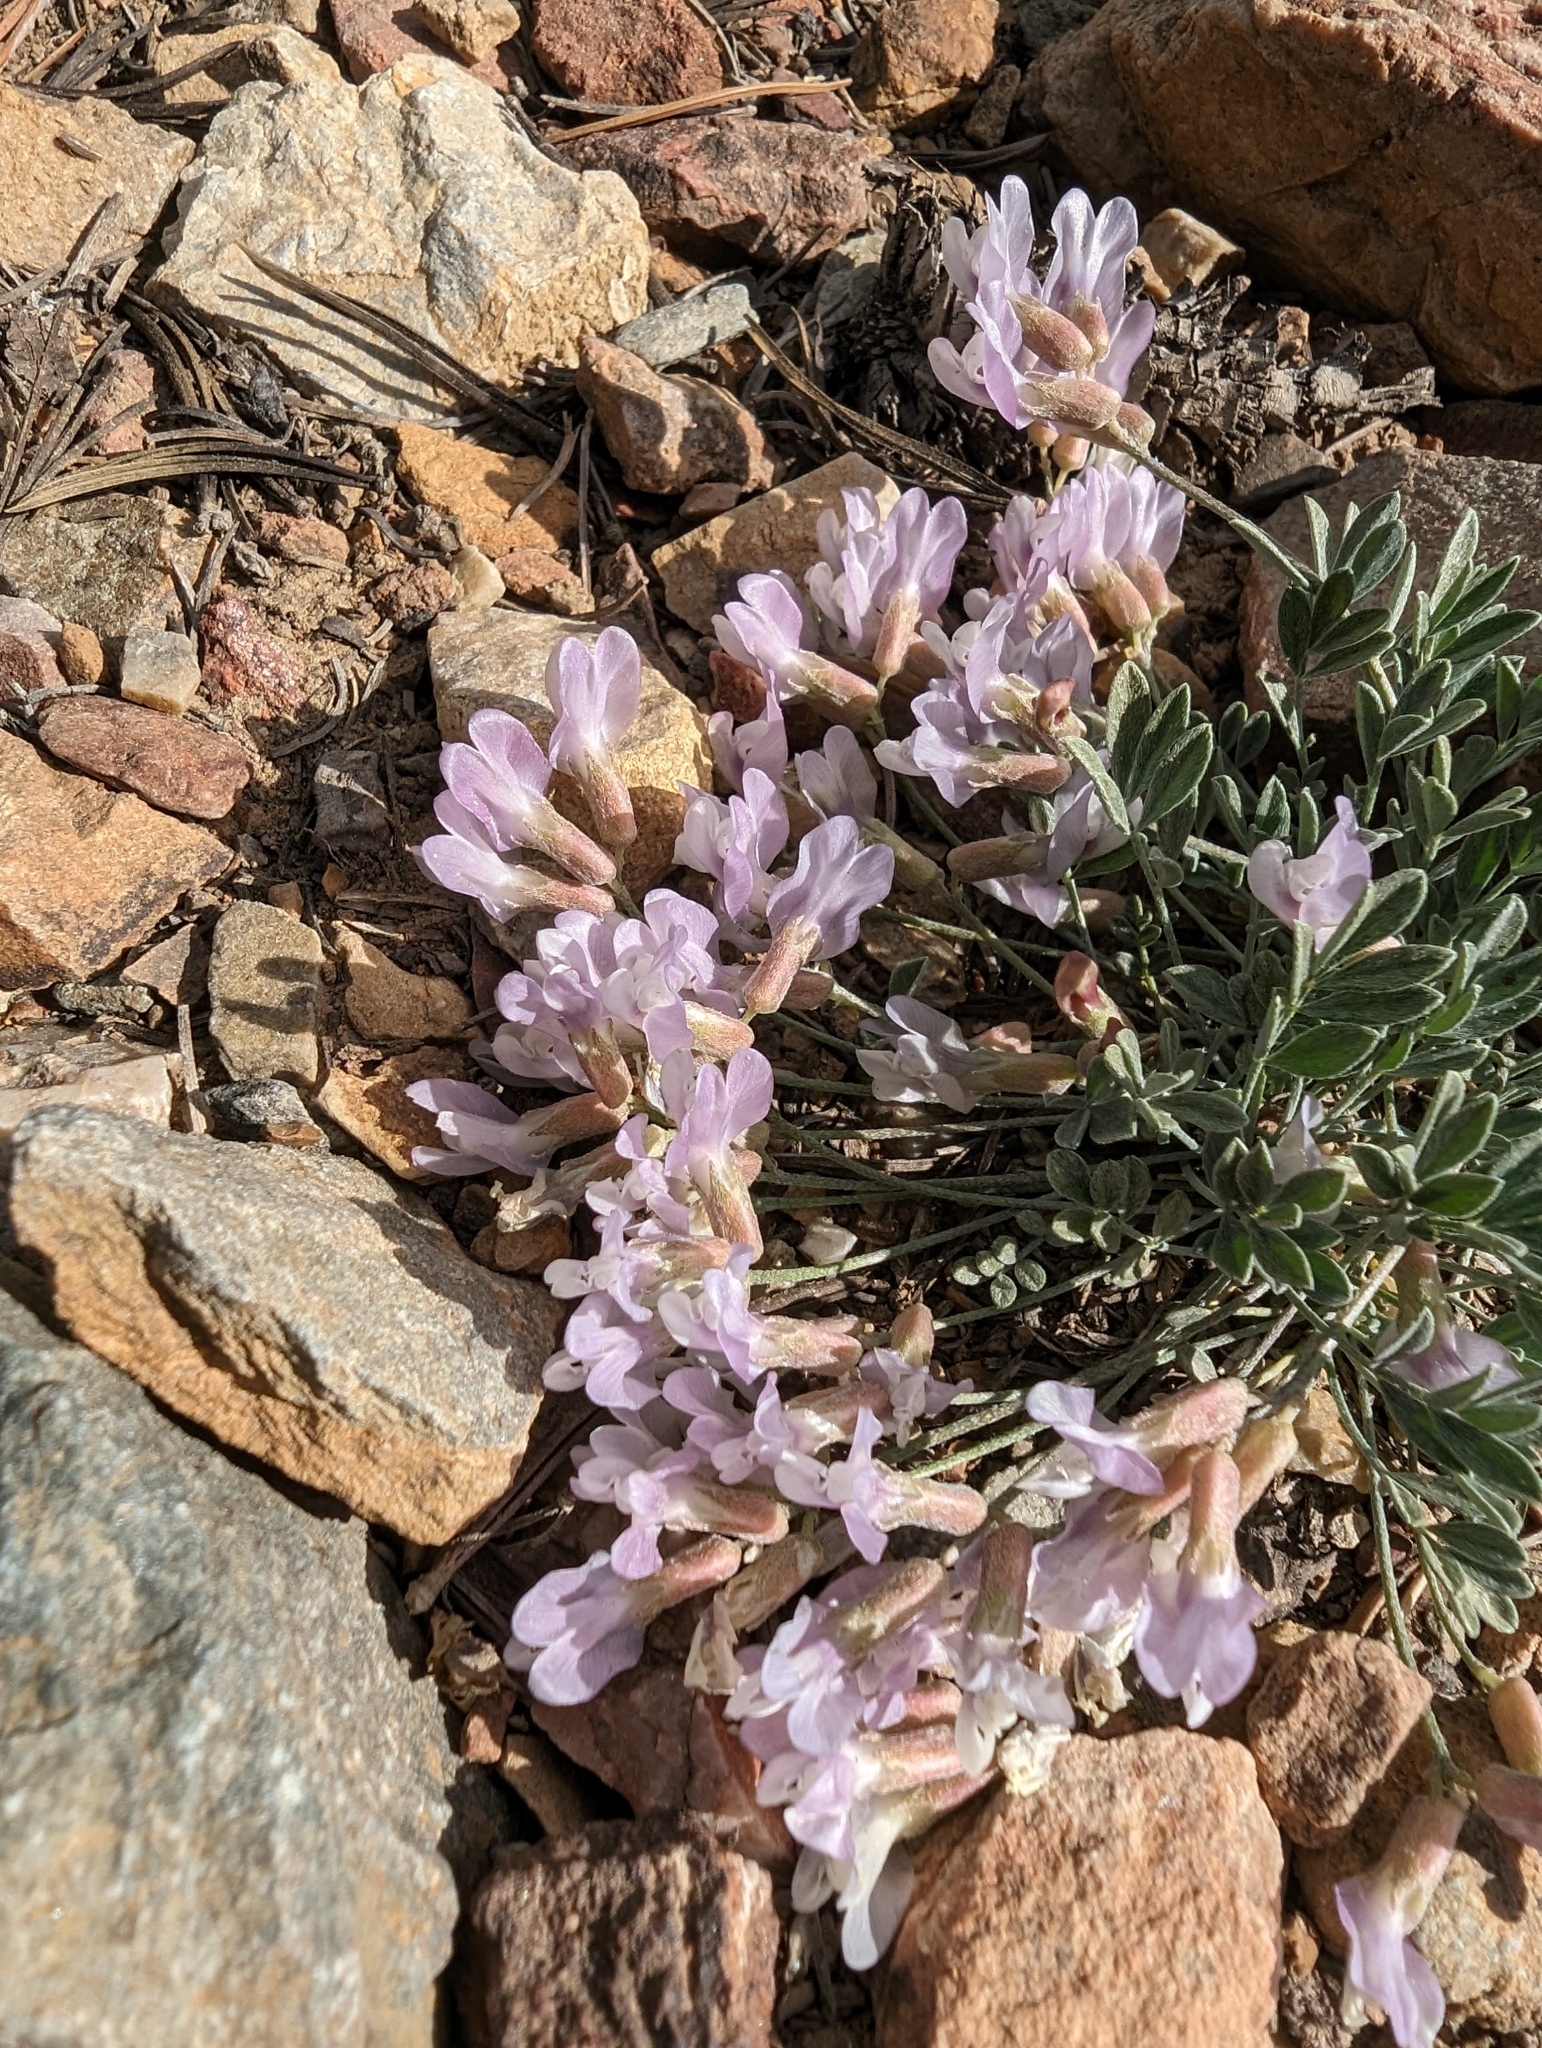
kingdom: Plantae
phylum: Tracheophyta
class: Magnoliopsida
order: Fabales
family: Fabaceae
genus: Astragalus
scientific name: Astragalus calycosus
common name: King's milkvetch
